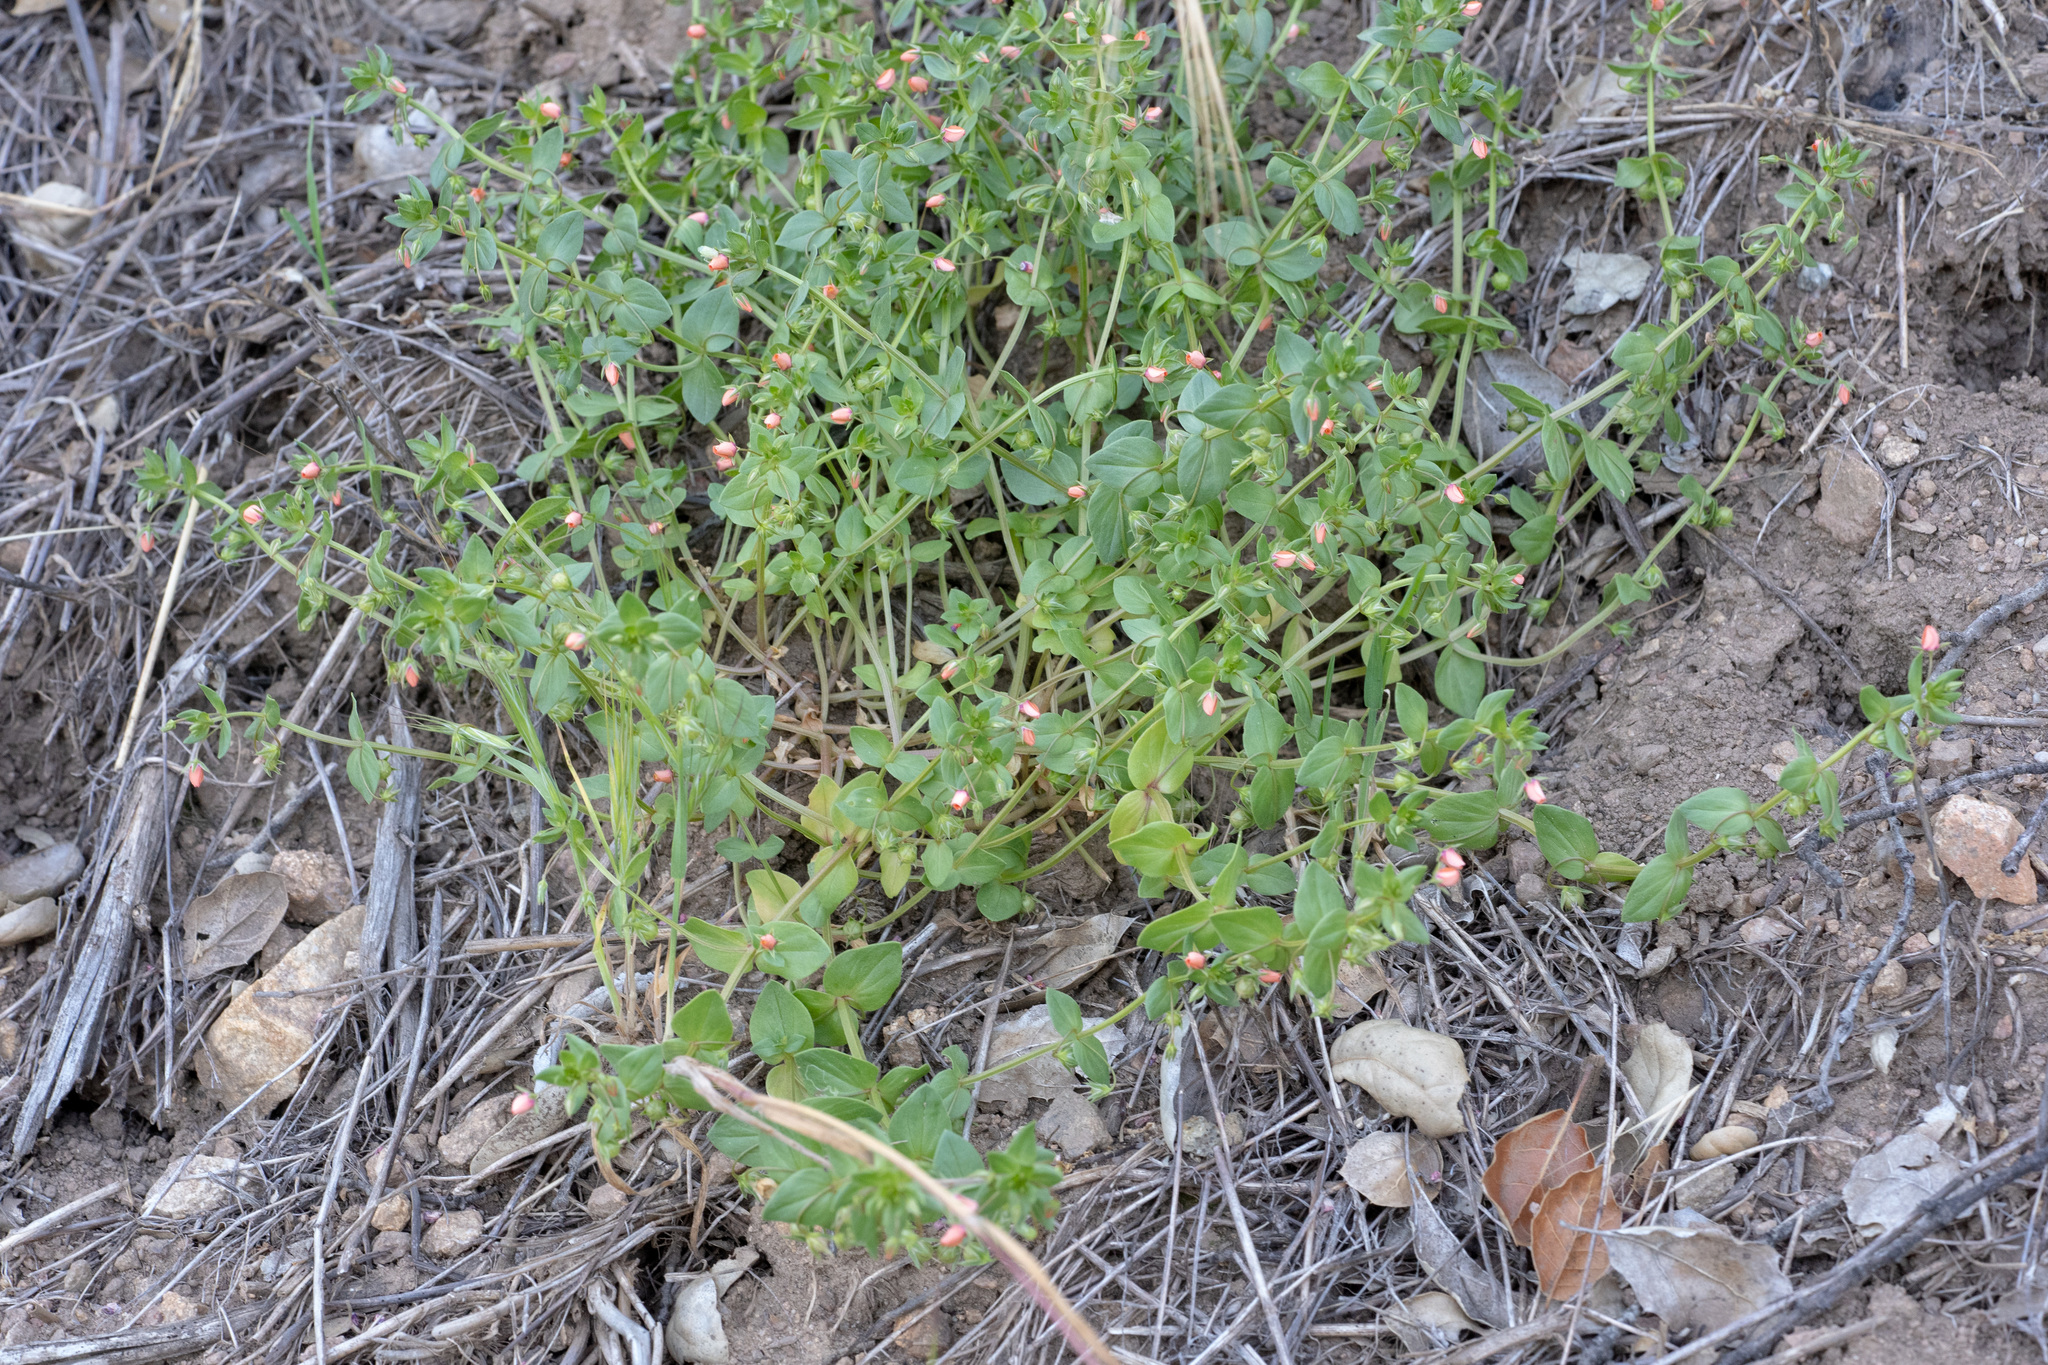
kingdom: Plantae
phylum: Tracheophyta
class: Magnoliopsida
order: Ericales
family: Primulaceae
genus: Lysimachia
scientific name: Lysimachia arvensis
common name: Scarlet pimpernel
